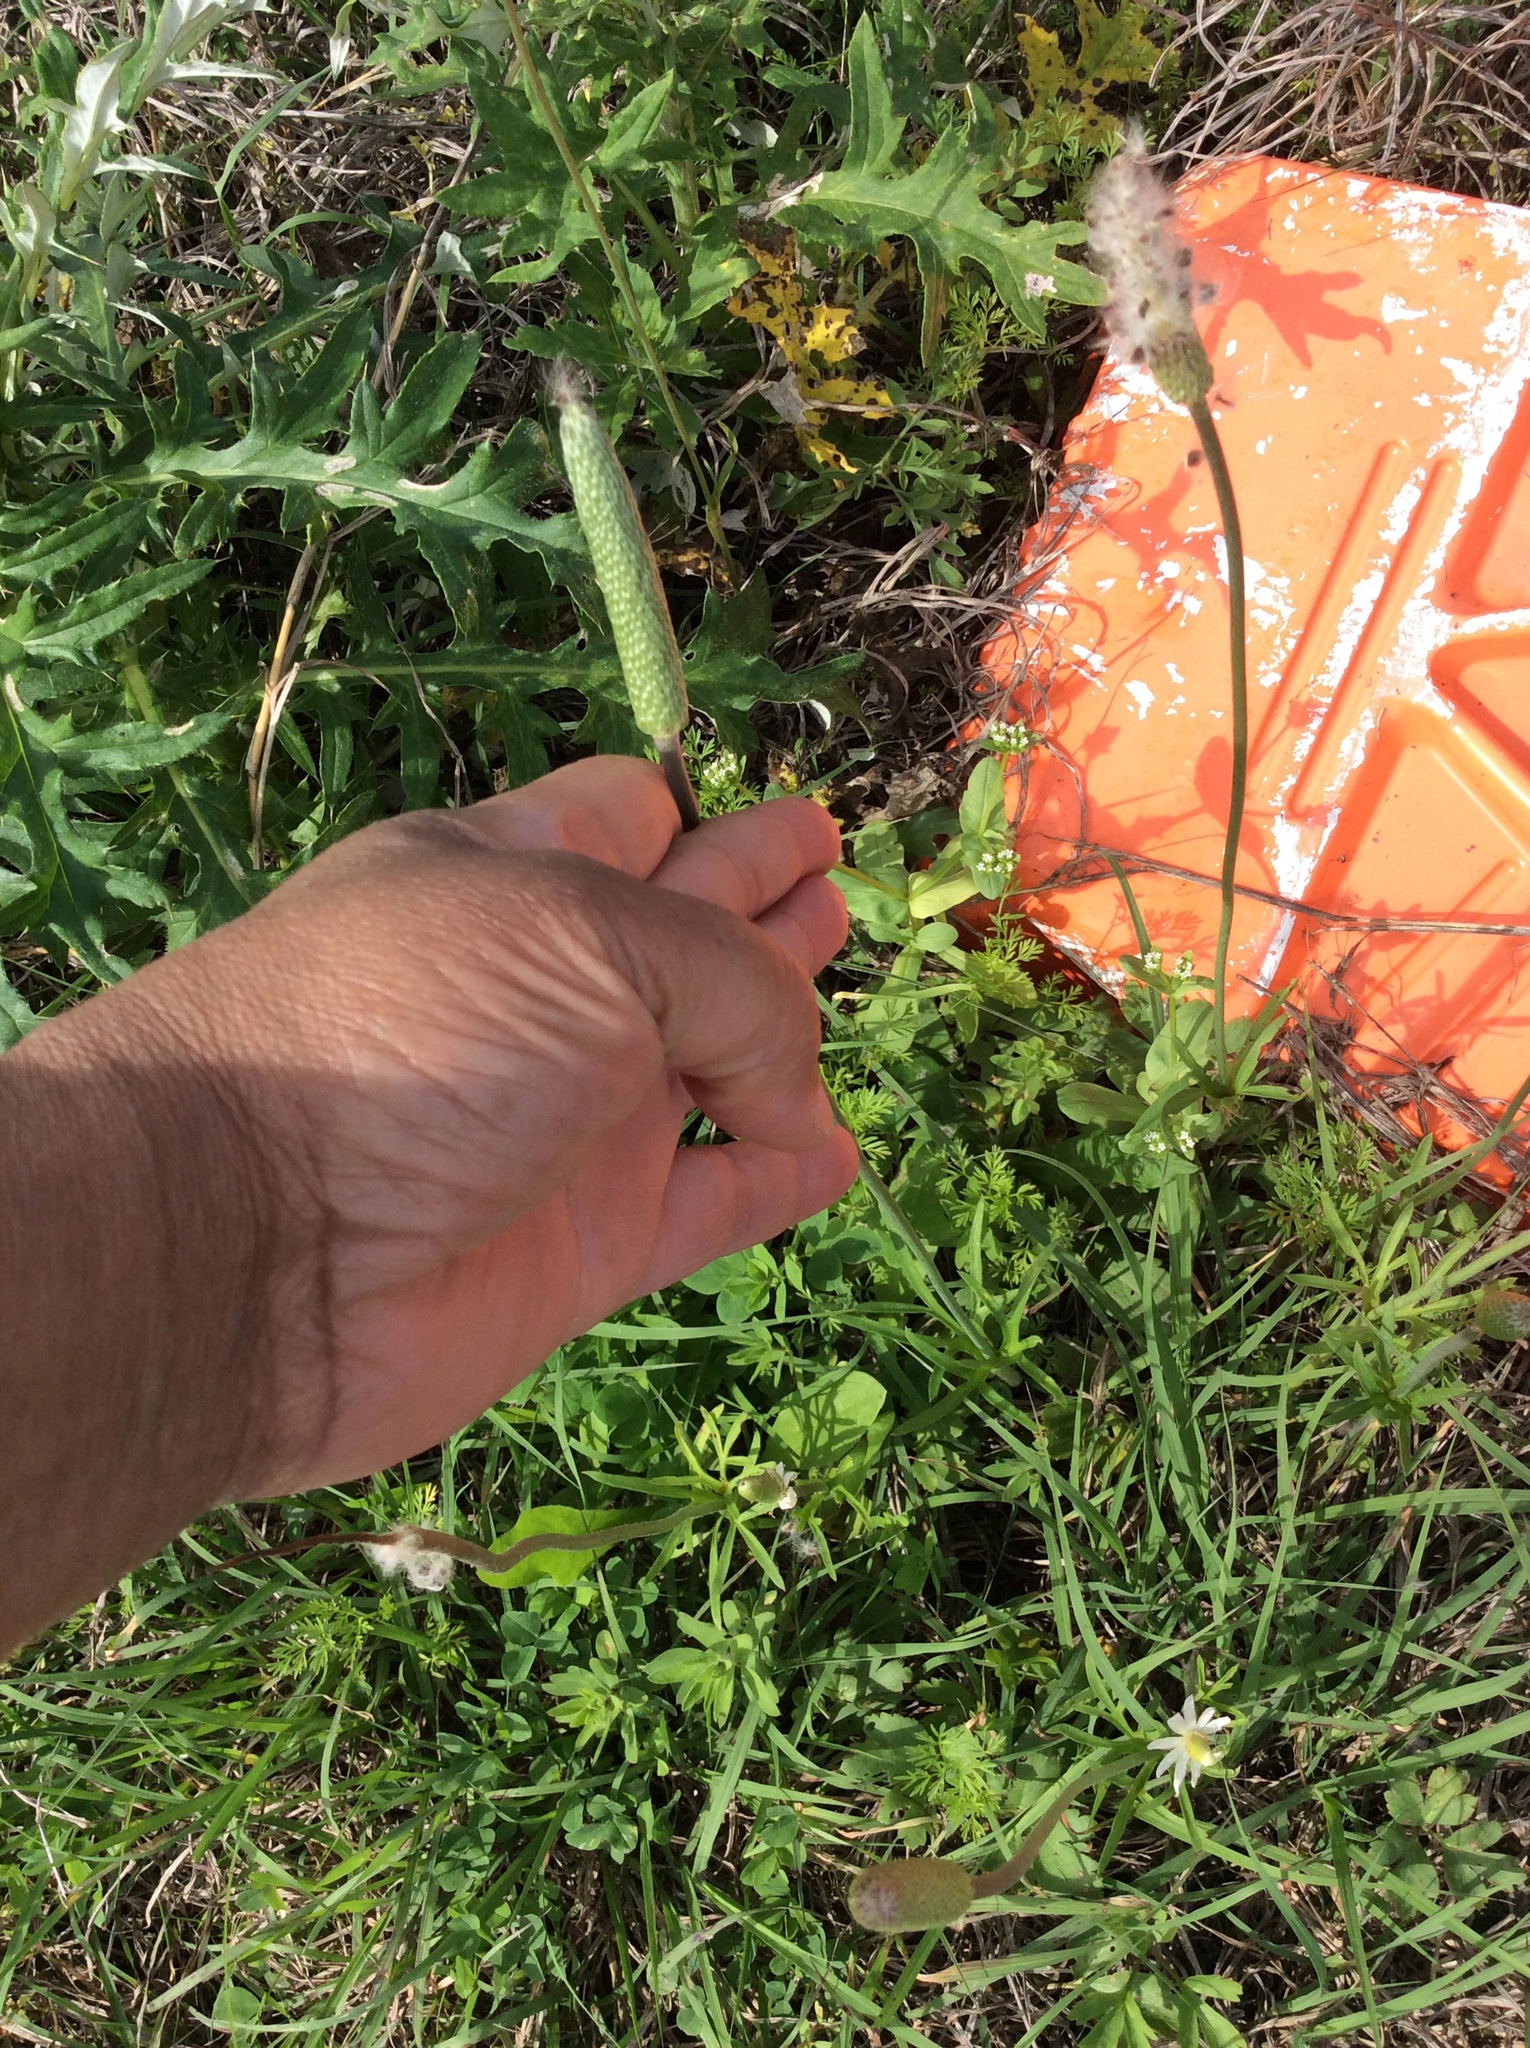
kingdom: Plantae
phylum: Tracheophyta
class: Magnoliopsida
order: Ranunculales
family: Ranunculaceae
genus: Anemone
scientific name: Anemone berlandieri
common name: Ten-petal anemone
